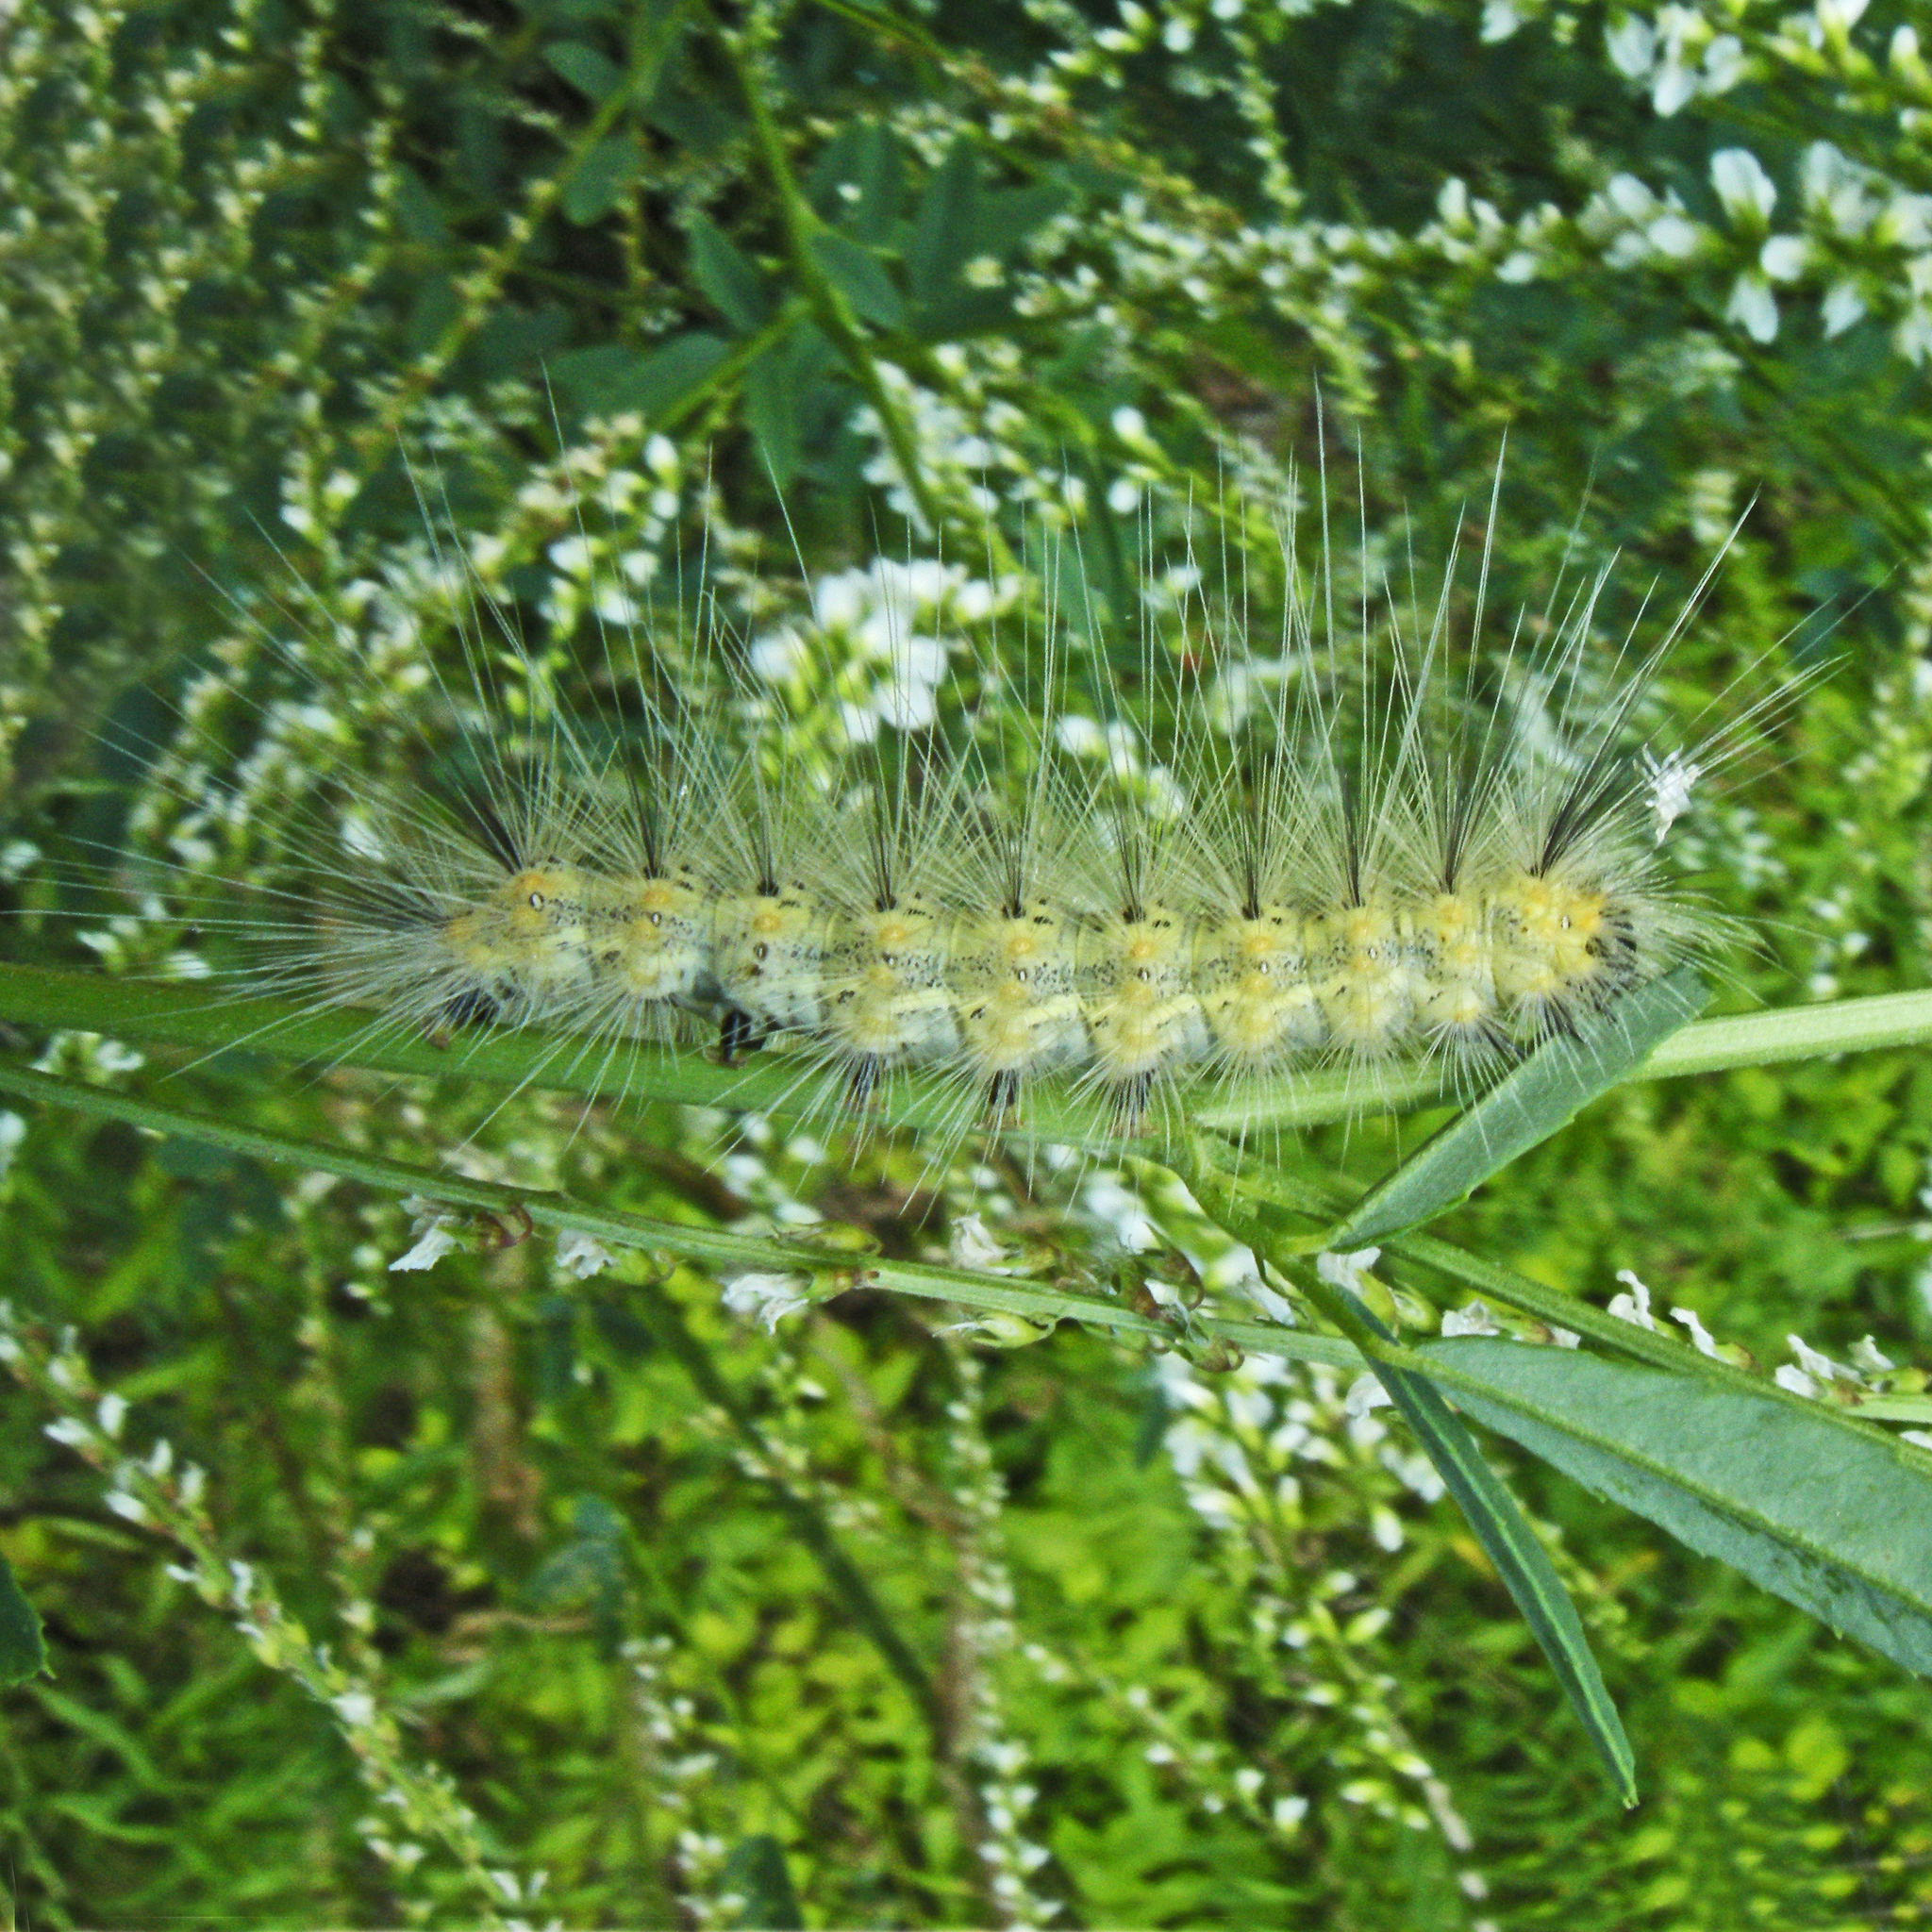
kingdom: Animalia
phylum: Arthropoda
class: Insecta
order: Lepidoptera
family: Erebidae
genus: Hyphantria
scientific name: Hyphantria cunea
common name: American white moth
